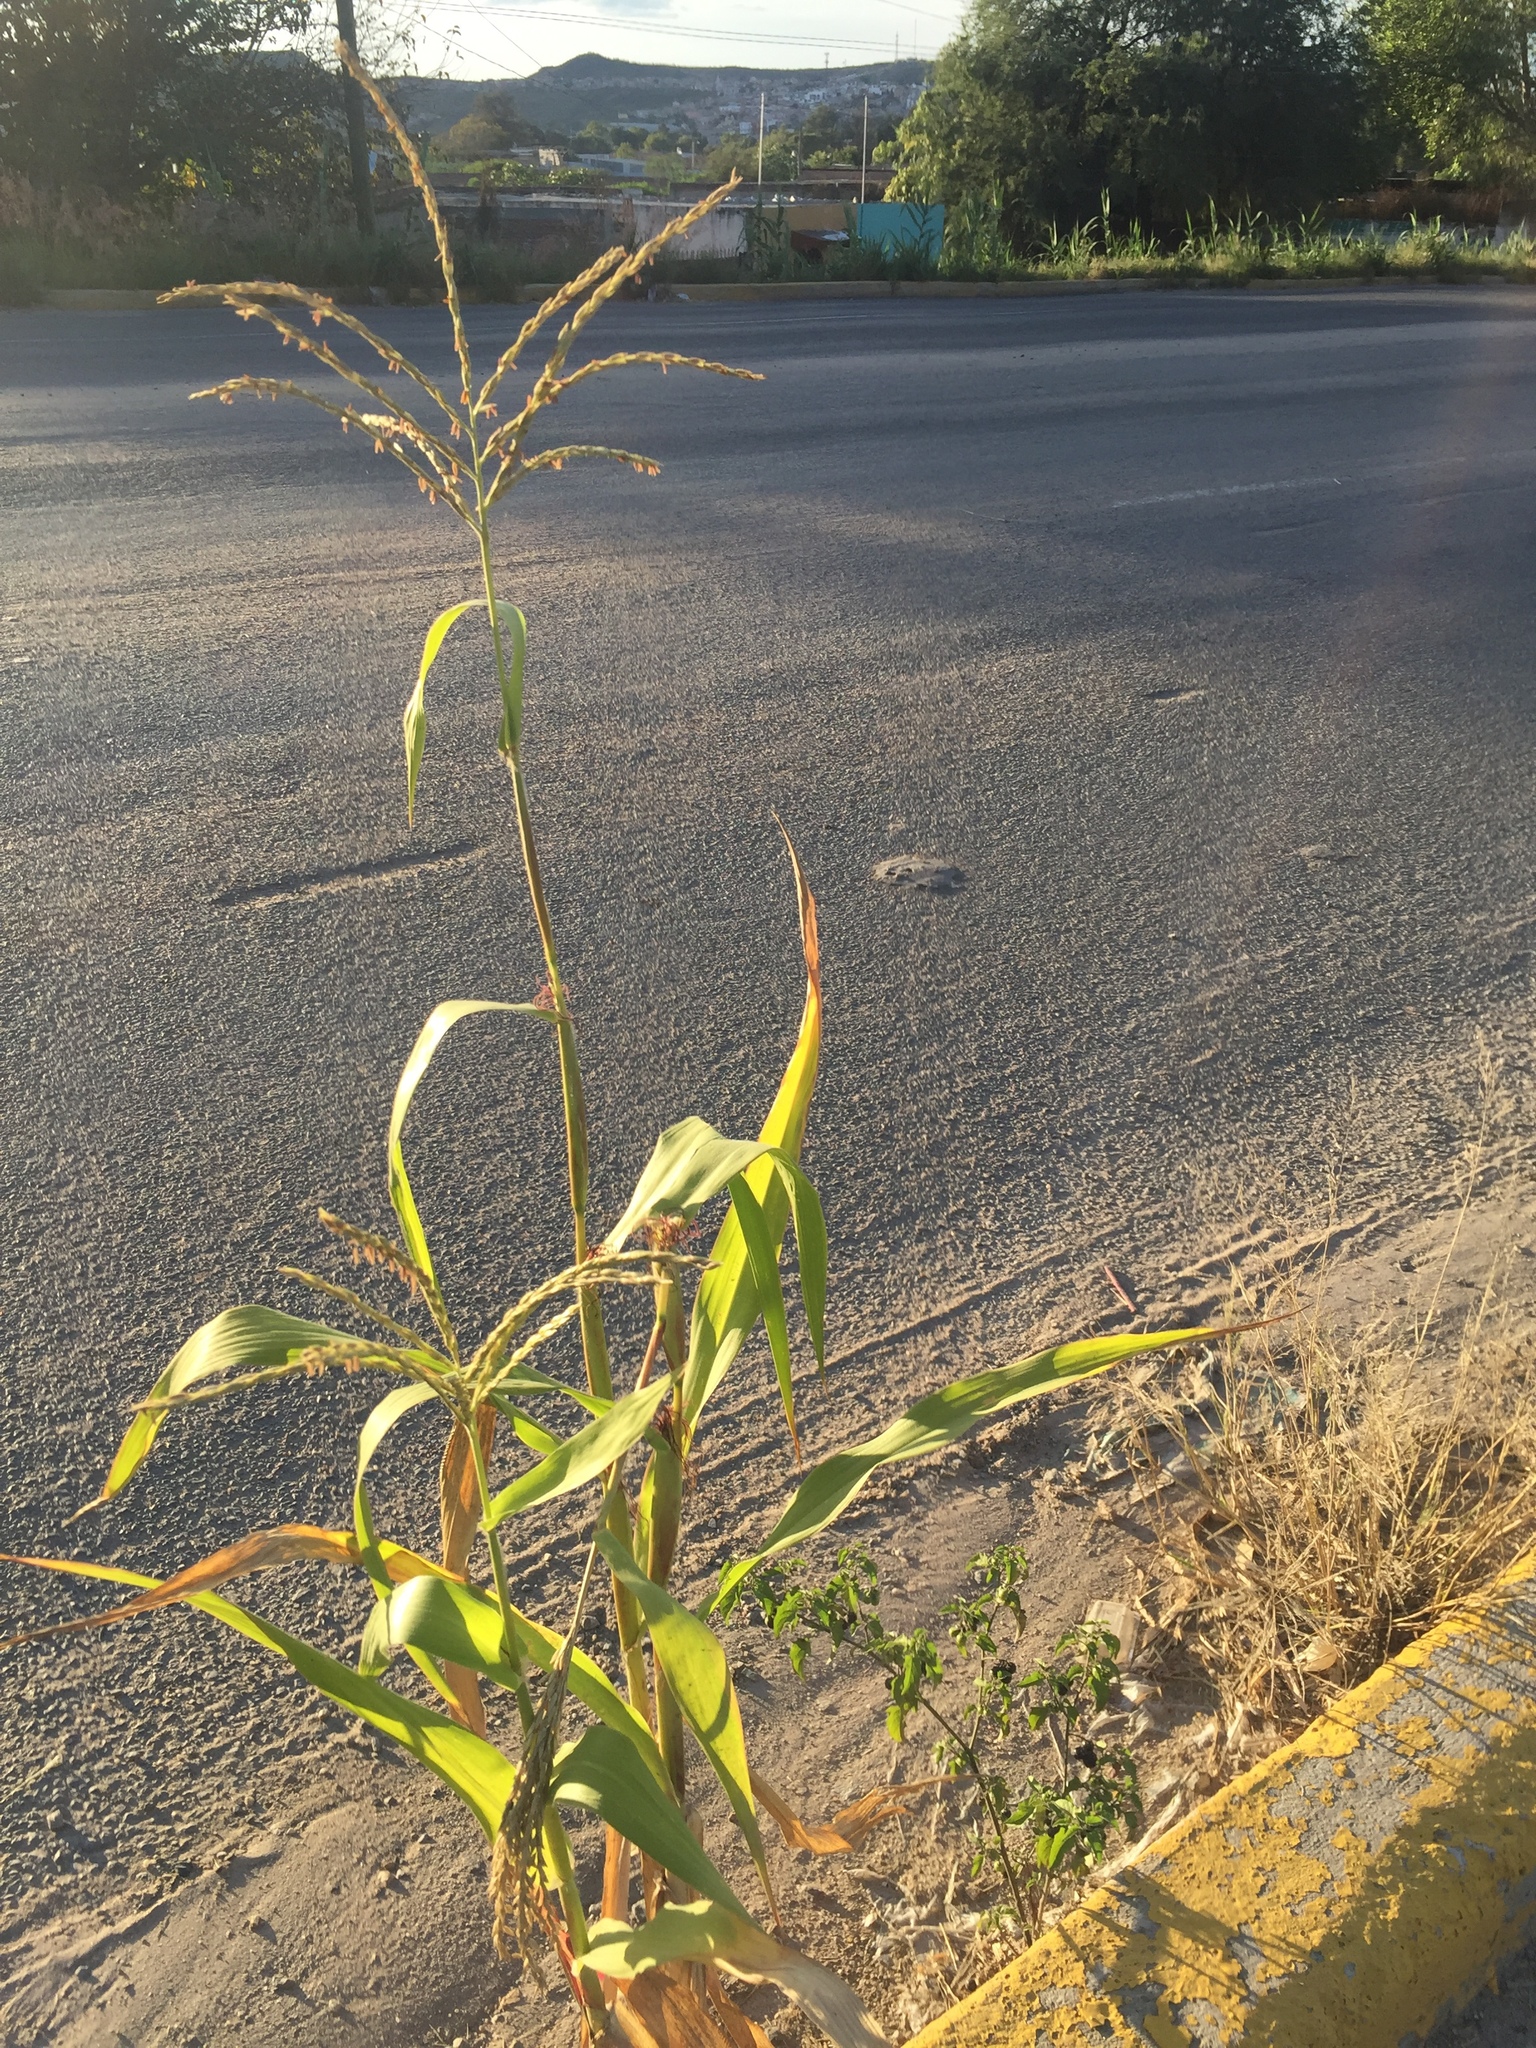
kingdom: Plantae
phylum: Tracheophyta
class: Liliopsida
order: Poales
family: Poaceae
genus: Zea
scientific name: Zea mays
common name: Maize
